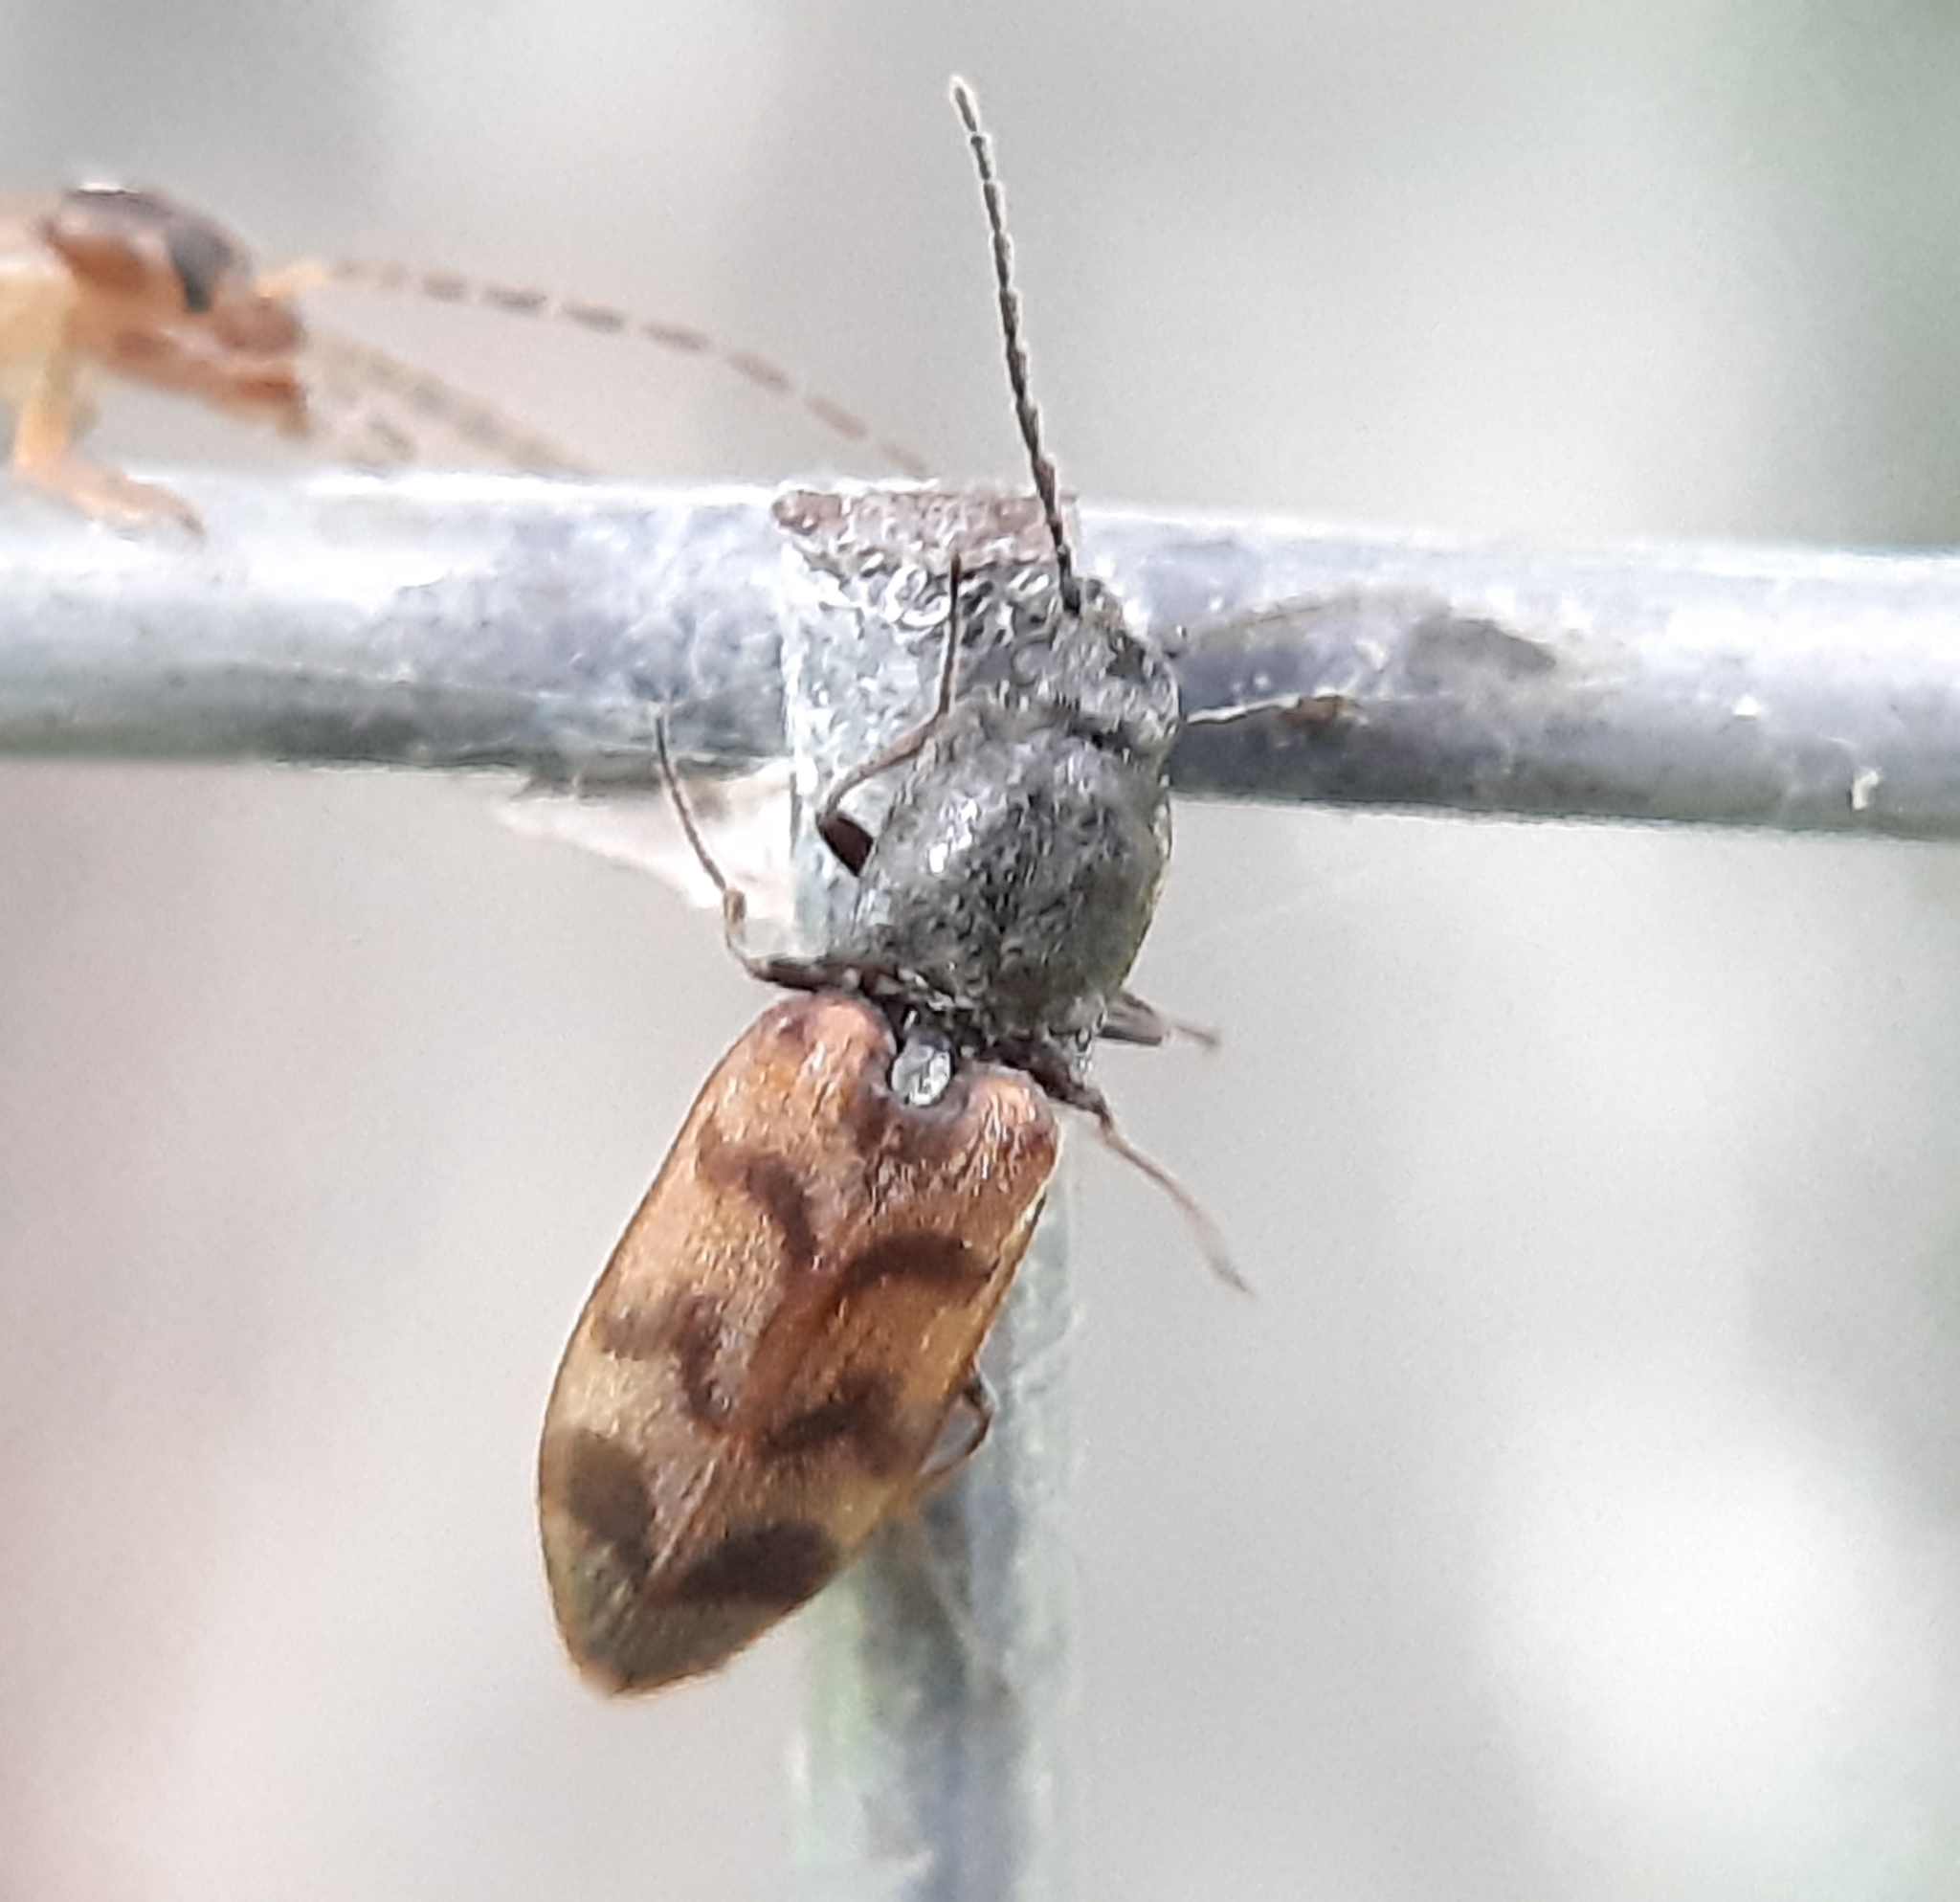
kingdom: Animalia
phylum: Arthropoda
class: Insecta
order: Coleoptera
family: Elateridae
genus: Pseudanostirus
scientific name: Pseudanostirus triundulatus
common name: Three-spotted click beetle
